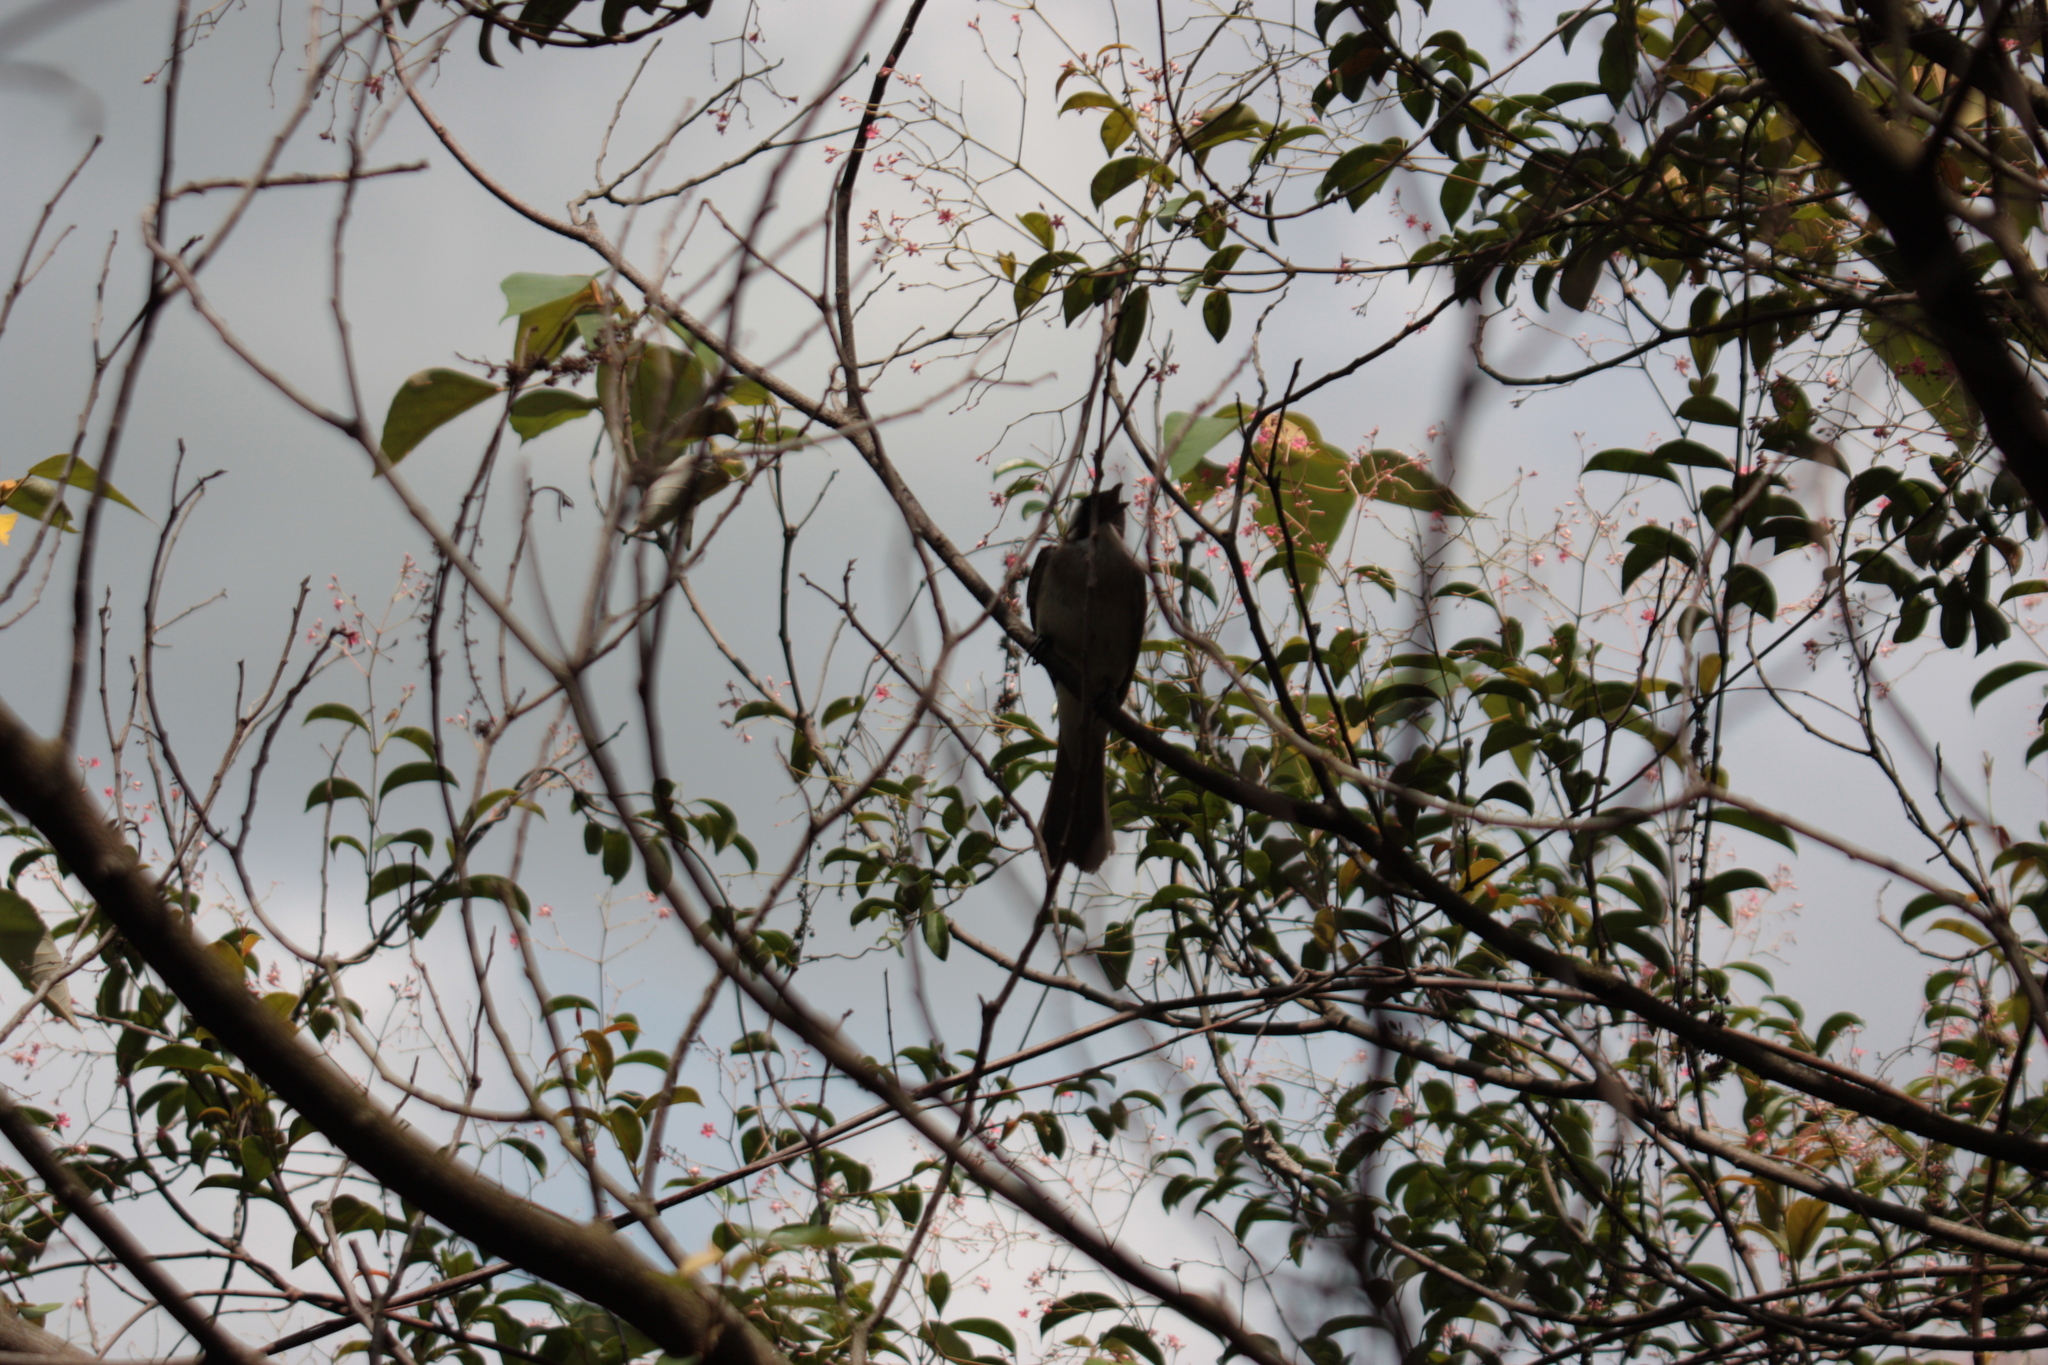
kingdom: Animalia
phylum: Chordata
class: Aves
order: Passeriformes
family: Pycnonotidae
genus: Pycnonotus
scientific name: Pycnonotus sinensis
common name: Light-vented bulbul
